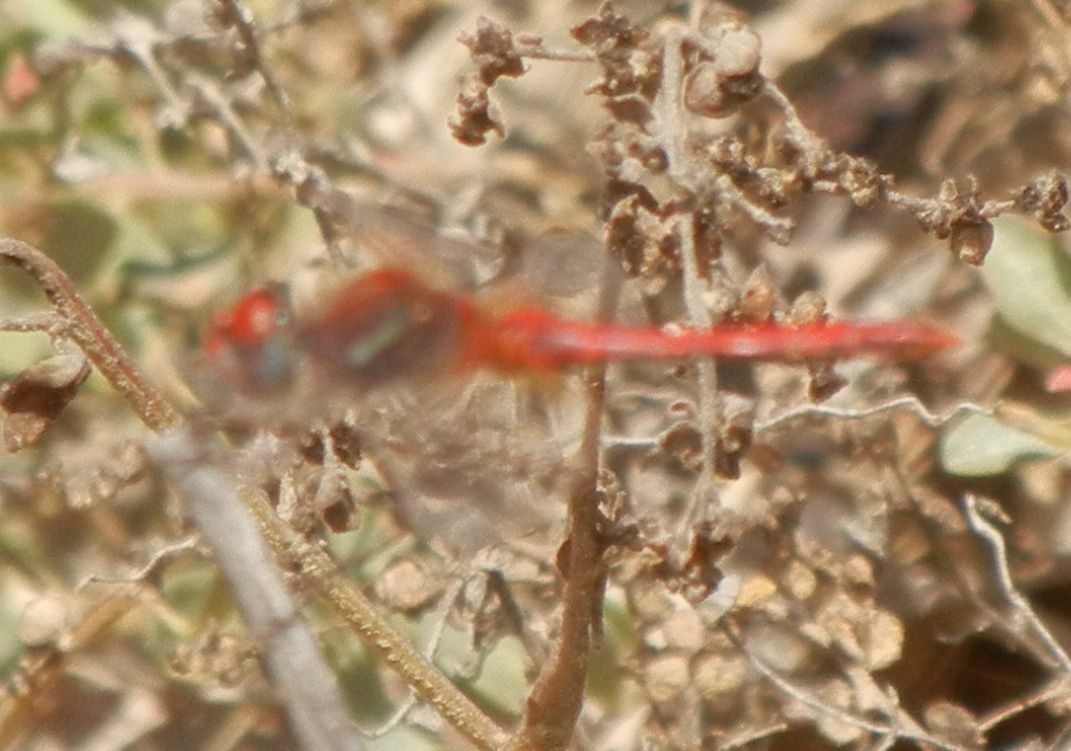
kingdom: Animalia
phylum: Arthropoda
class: Insecta
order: Odonata
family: Libellulidae
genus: Sympetrum
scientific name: Sympetrum fonscolombii
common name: Red-veined darter
